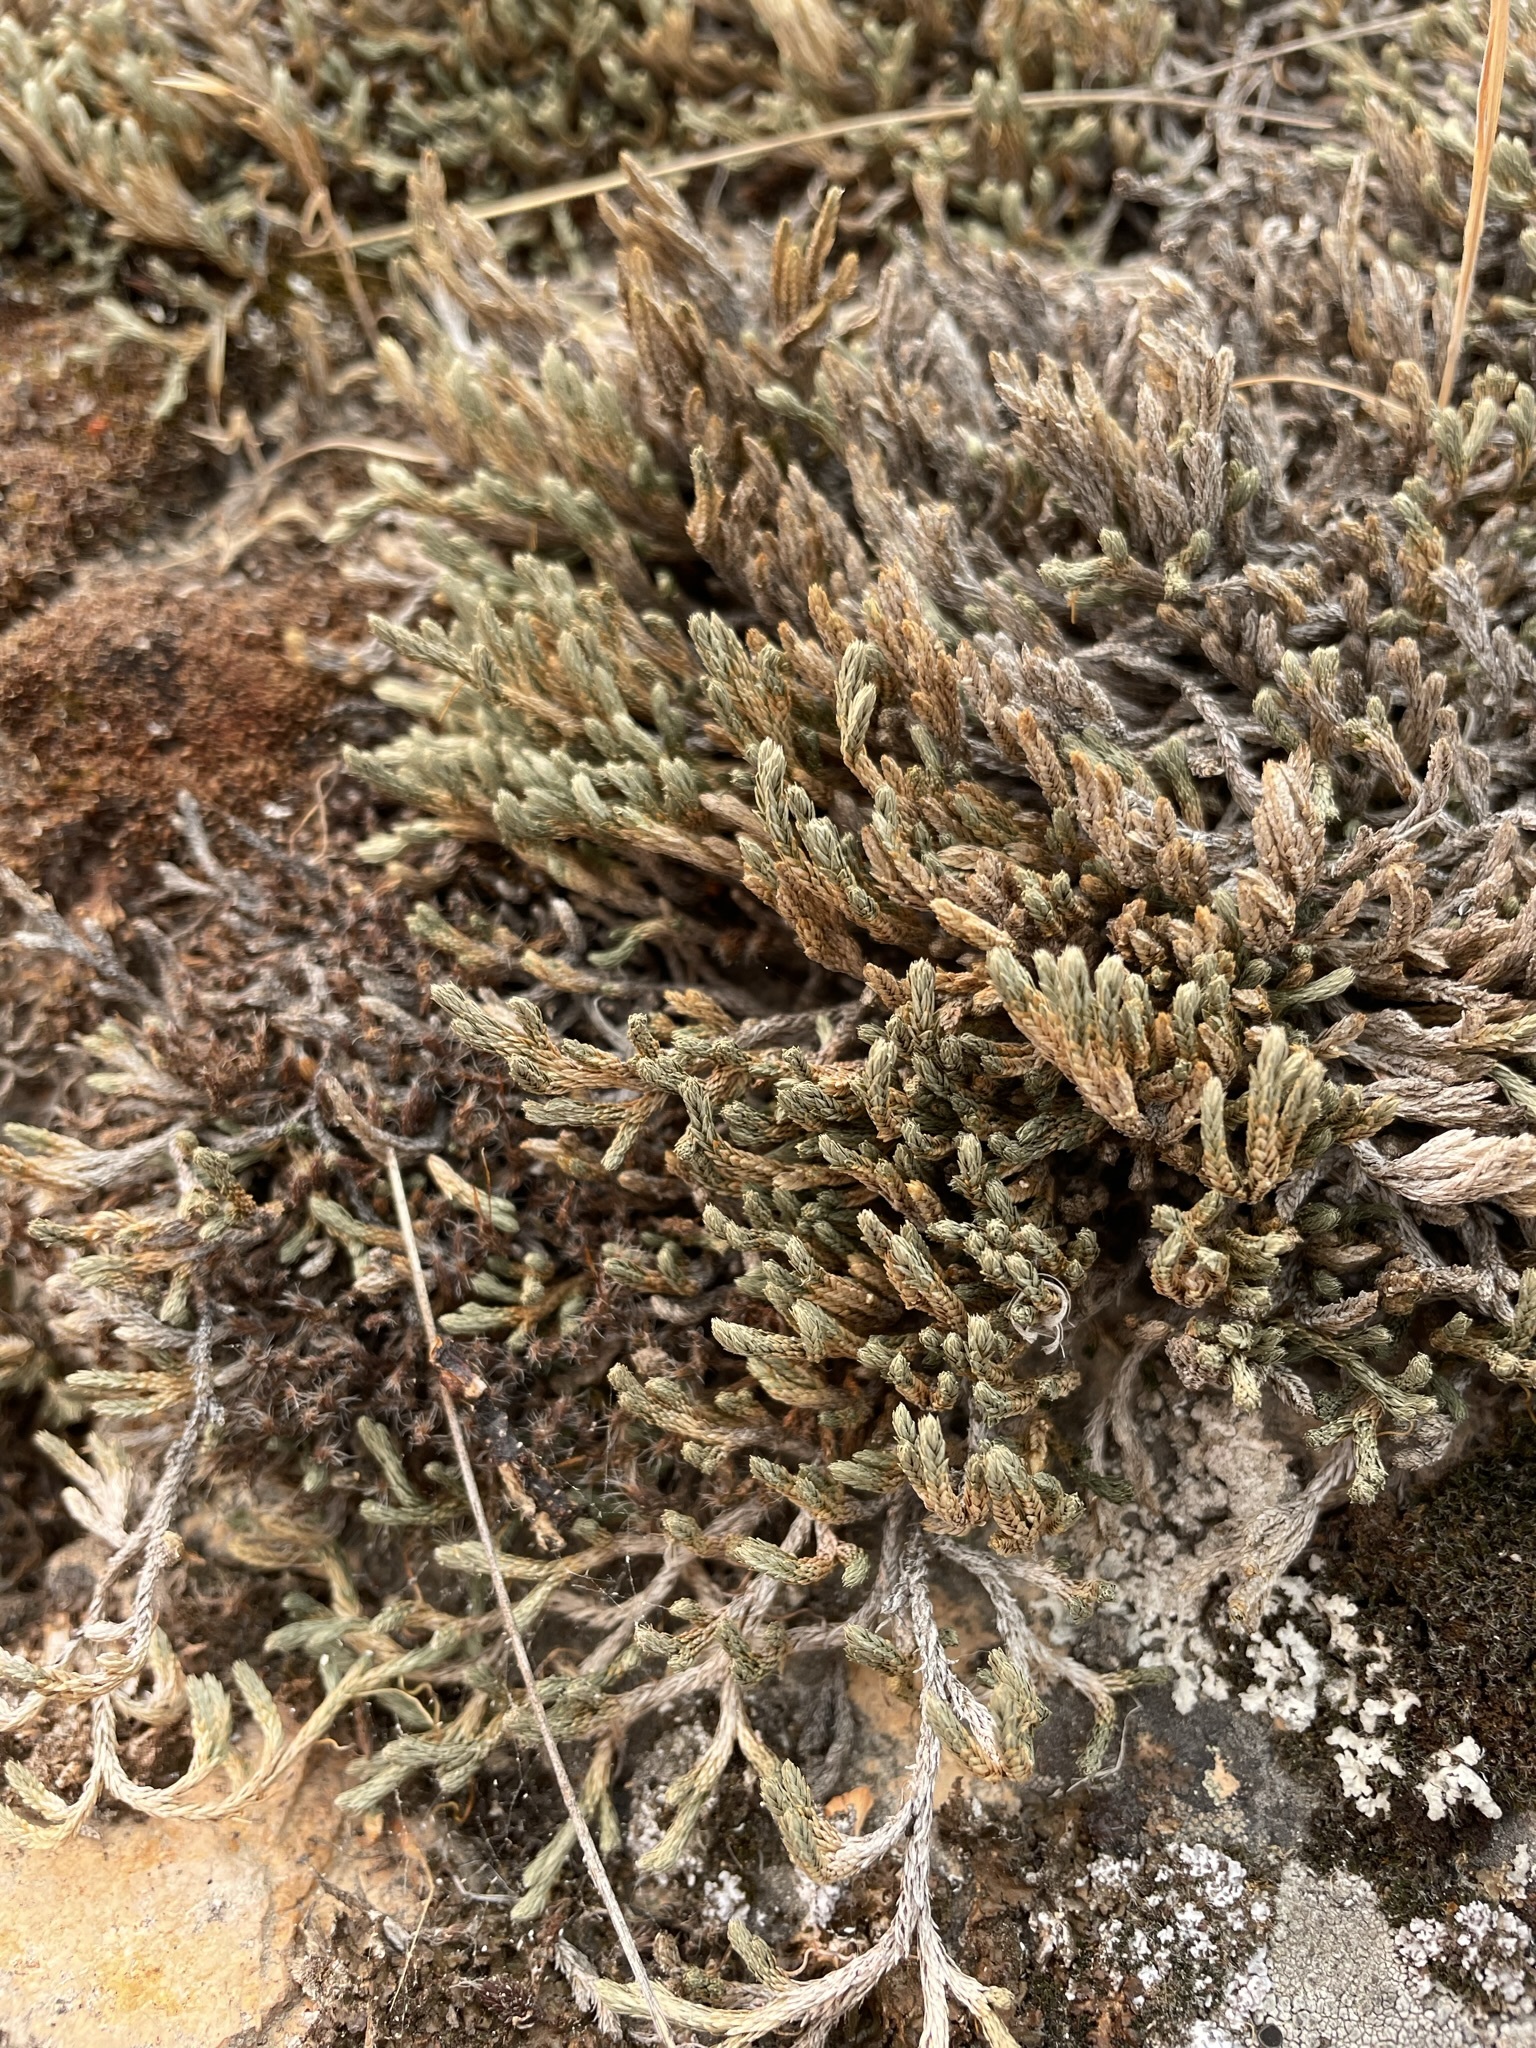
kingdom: Plantae
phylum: Tracheophyta
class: Lycopodiopsida
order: Selaginellales
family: Selaginellaceae
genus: Selaginella
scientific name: Selaginella wallacei
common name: Wallace's selaginella
